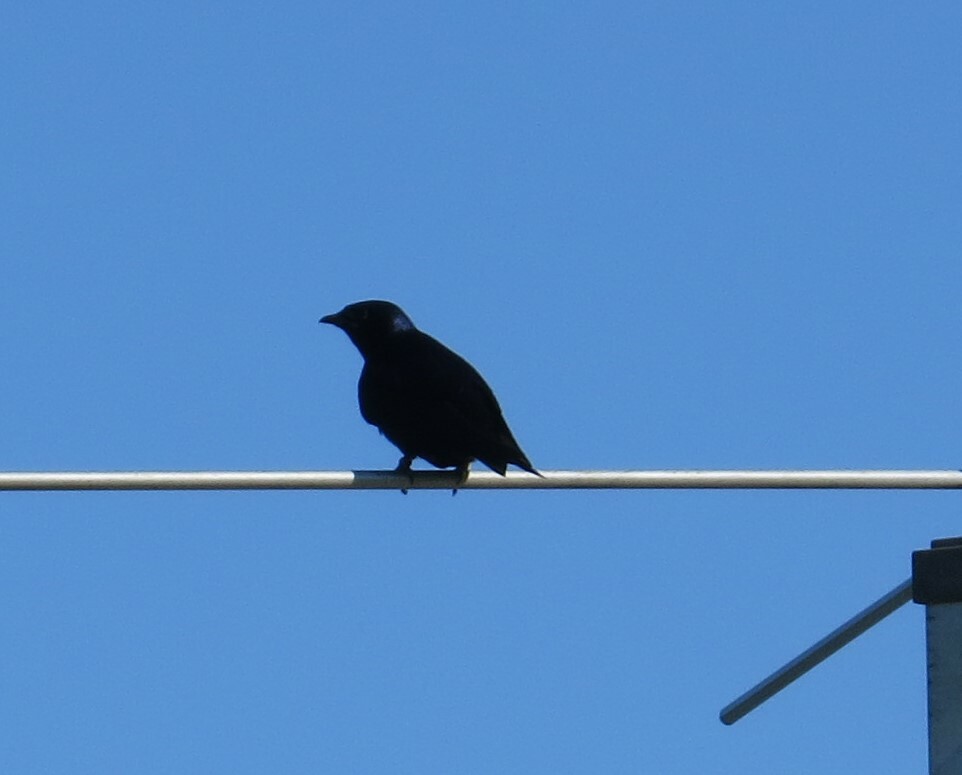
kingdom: Animalia
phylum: Chordata
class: Aves
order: Passeriformes
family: Hirundinidae
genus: Progne
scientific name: Progne subis
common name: Purple martin
